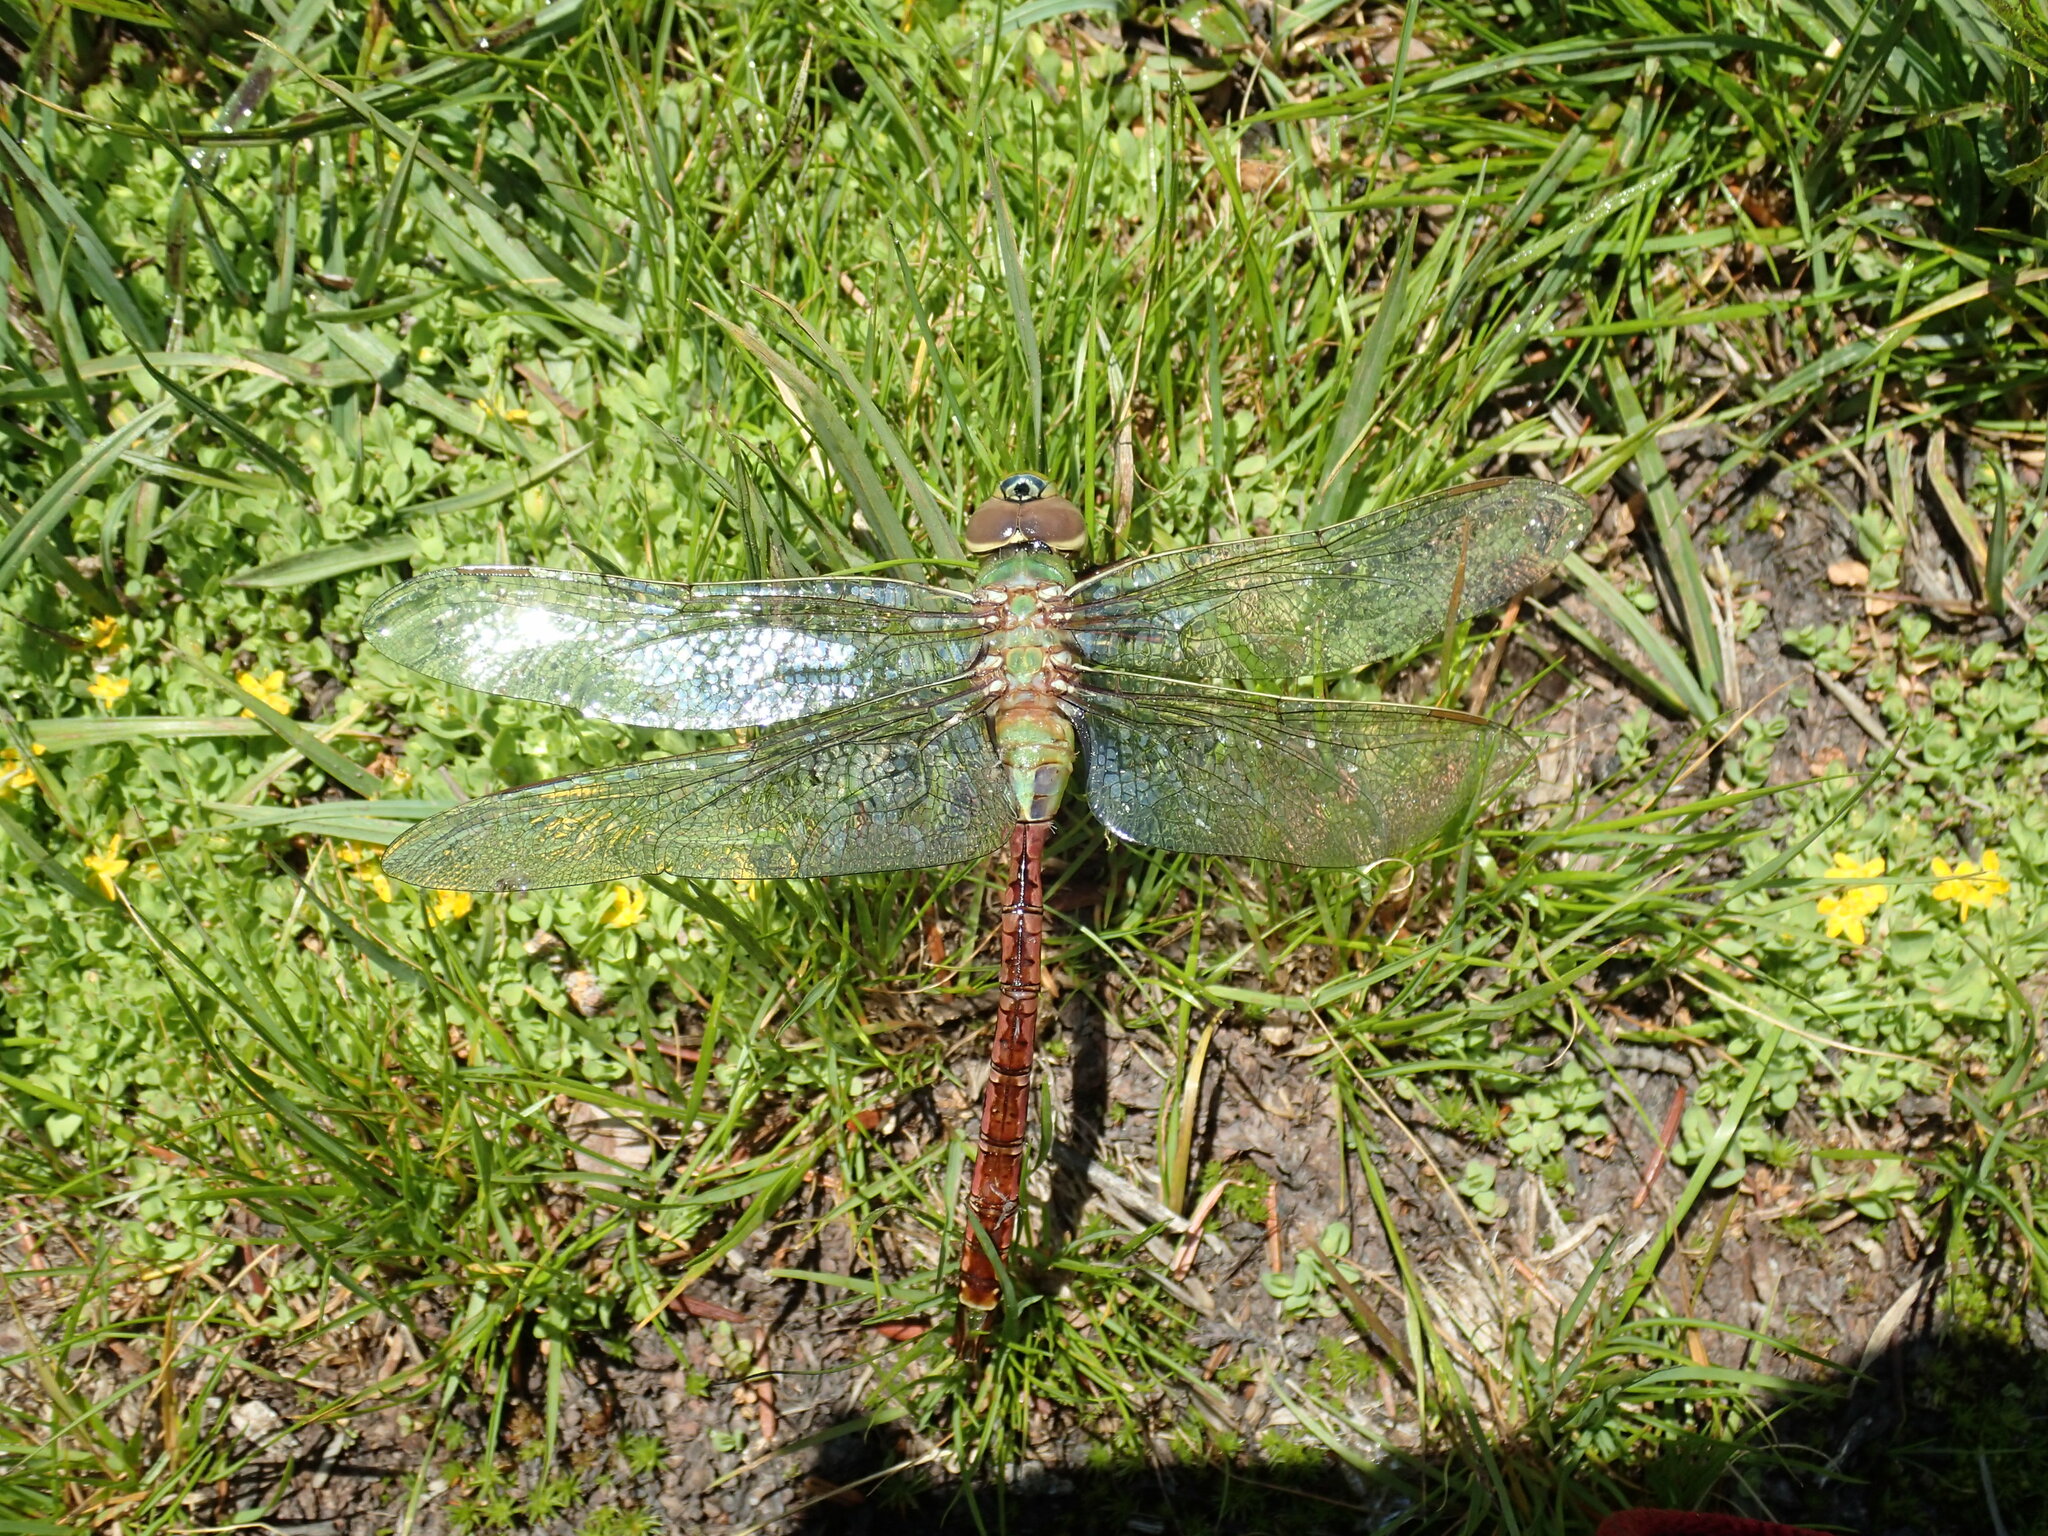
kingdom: Animalia
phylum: Arthropoda
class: Insecta
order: Odonata
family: Aeshnidae
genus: Anax
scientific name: Anax junius
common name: Common green darner
